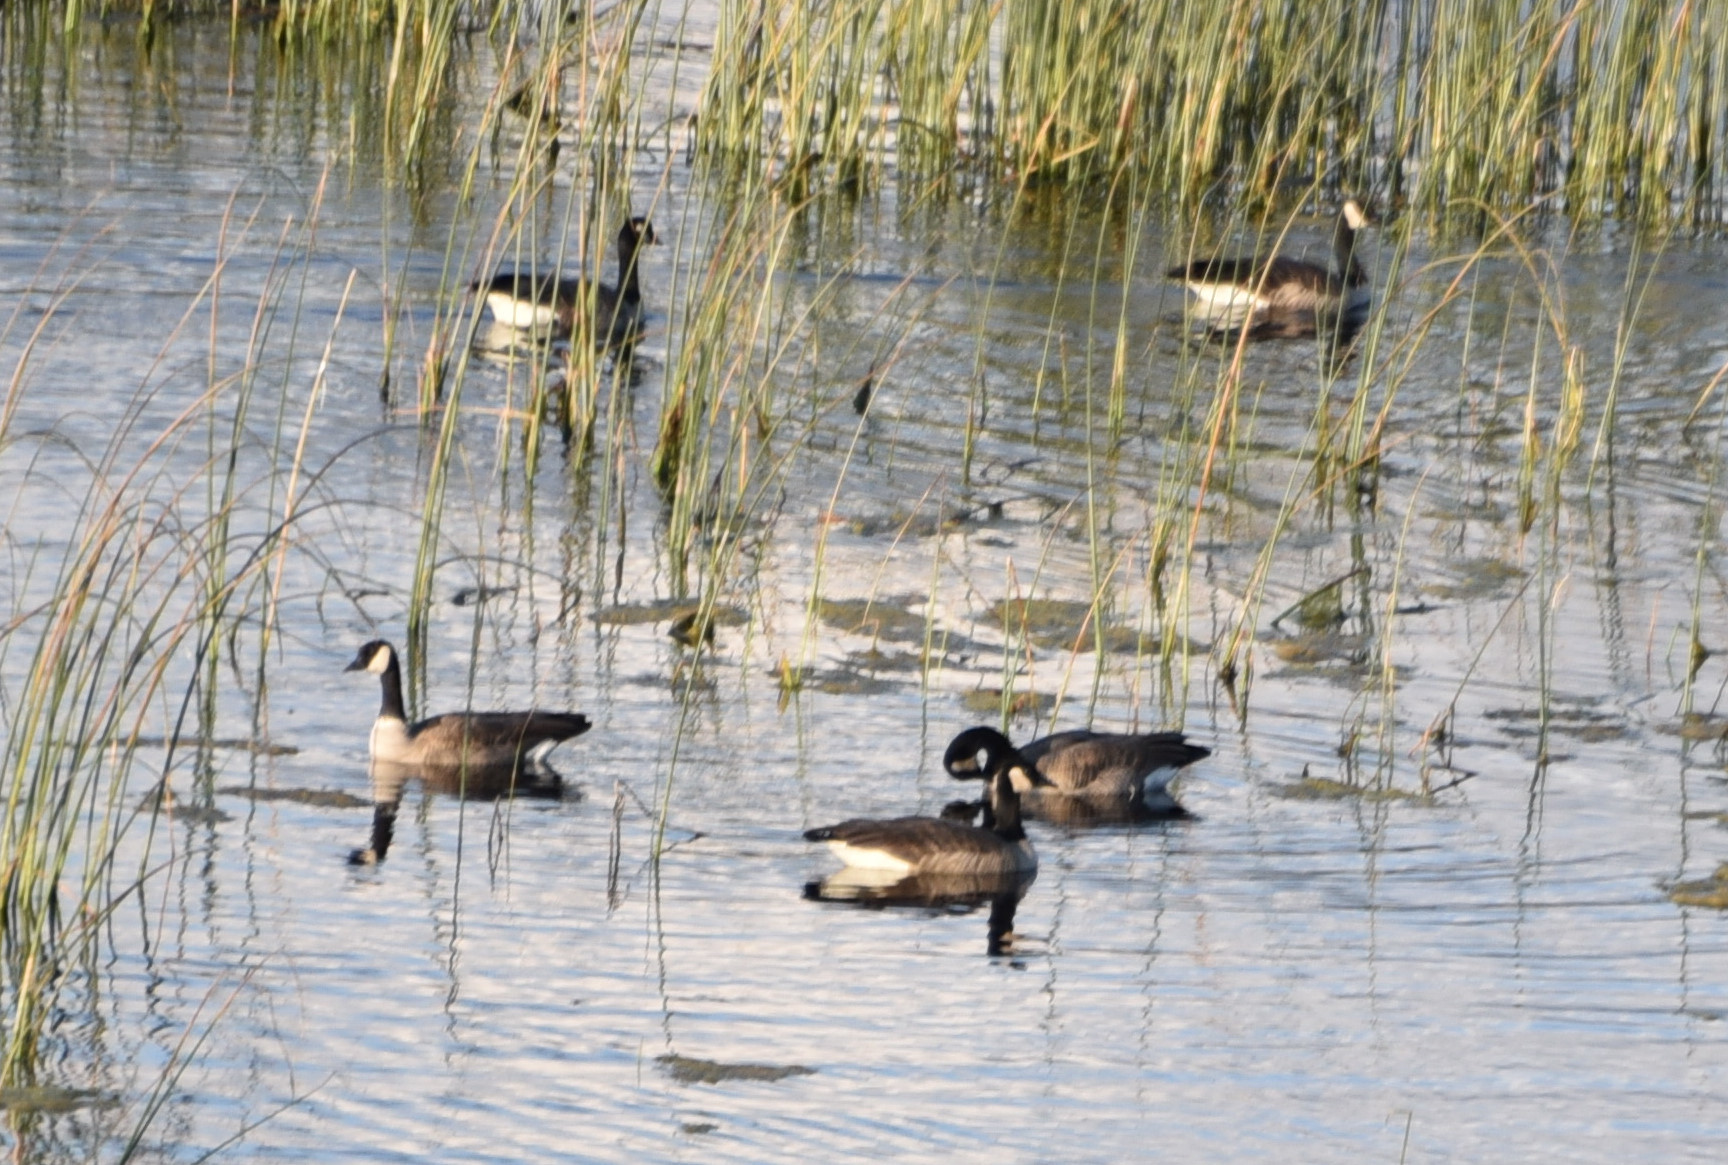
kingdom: Animalia
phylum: Chordata
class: Aves
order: Anseriformes
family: Anatidae
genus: Branta
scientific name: Branta canadensis
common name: Canada goose
